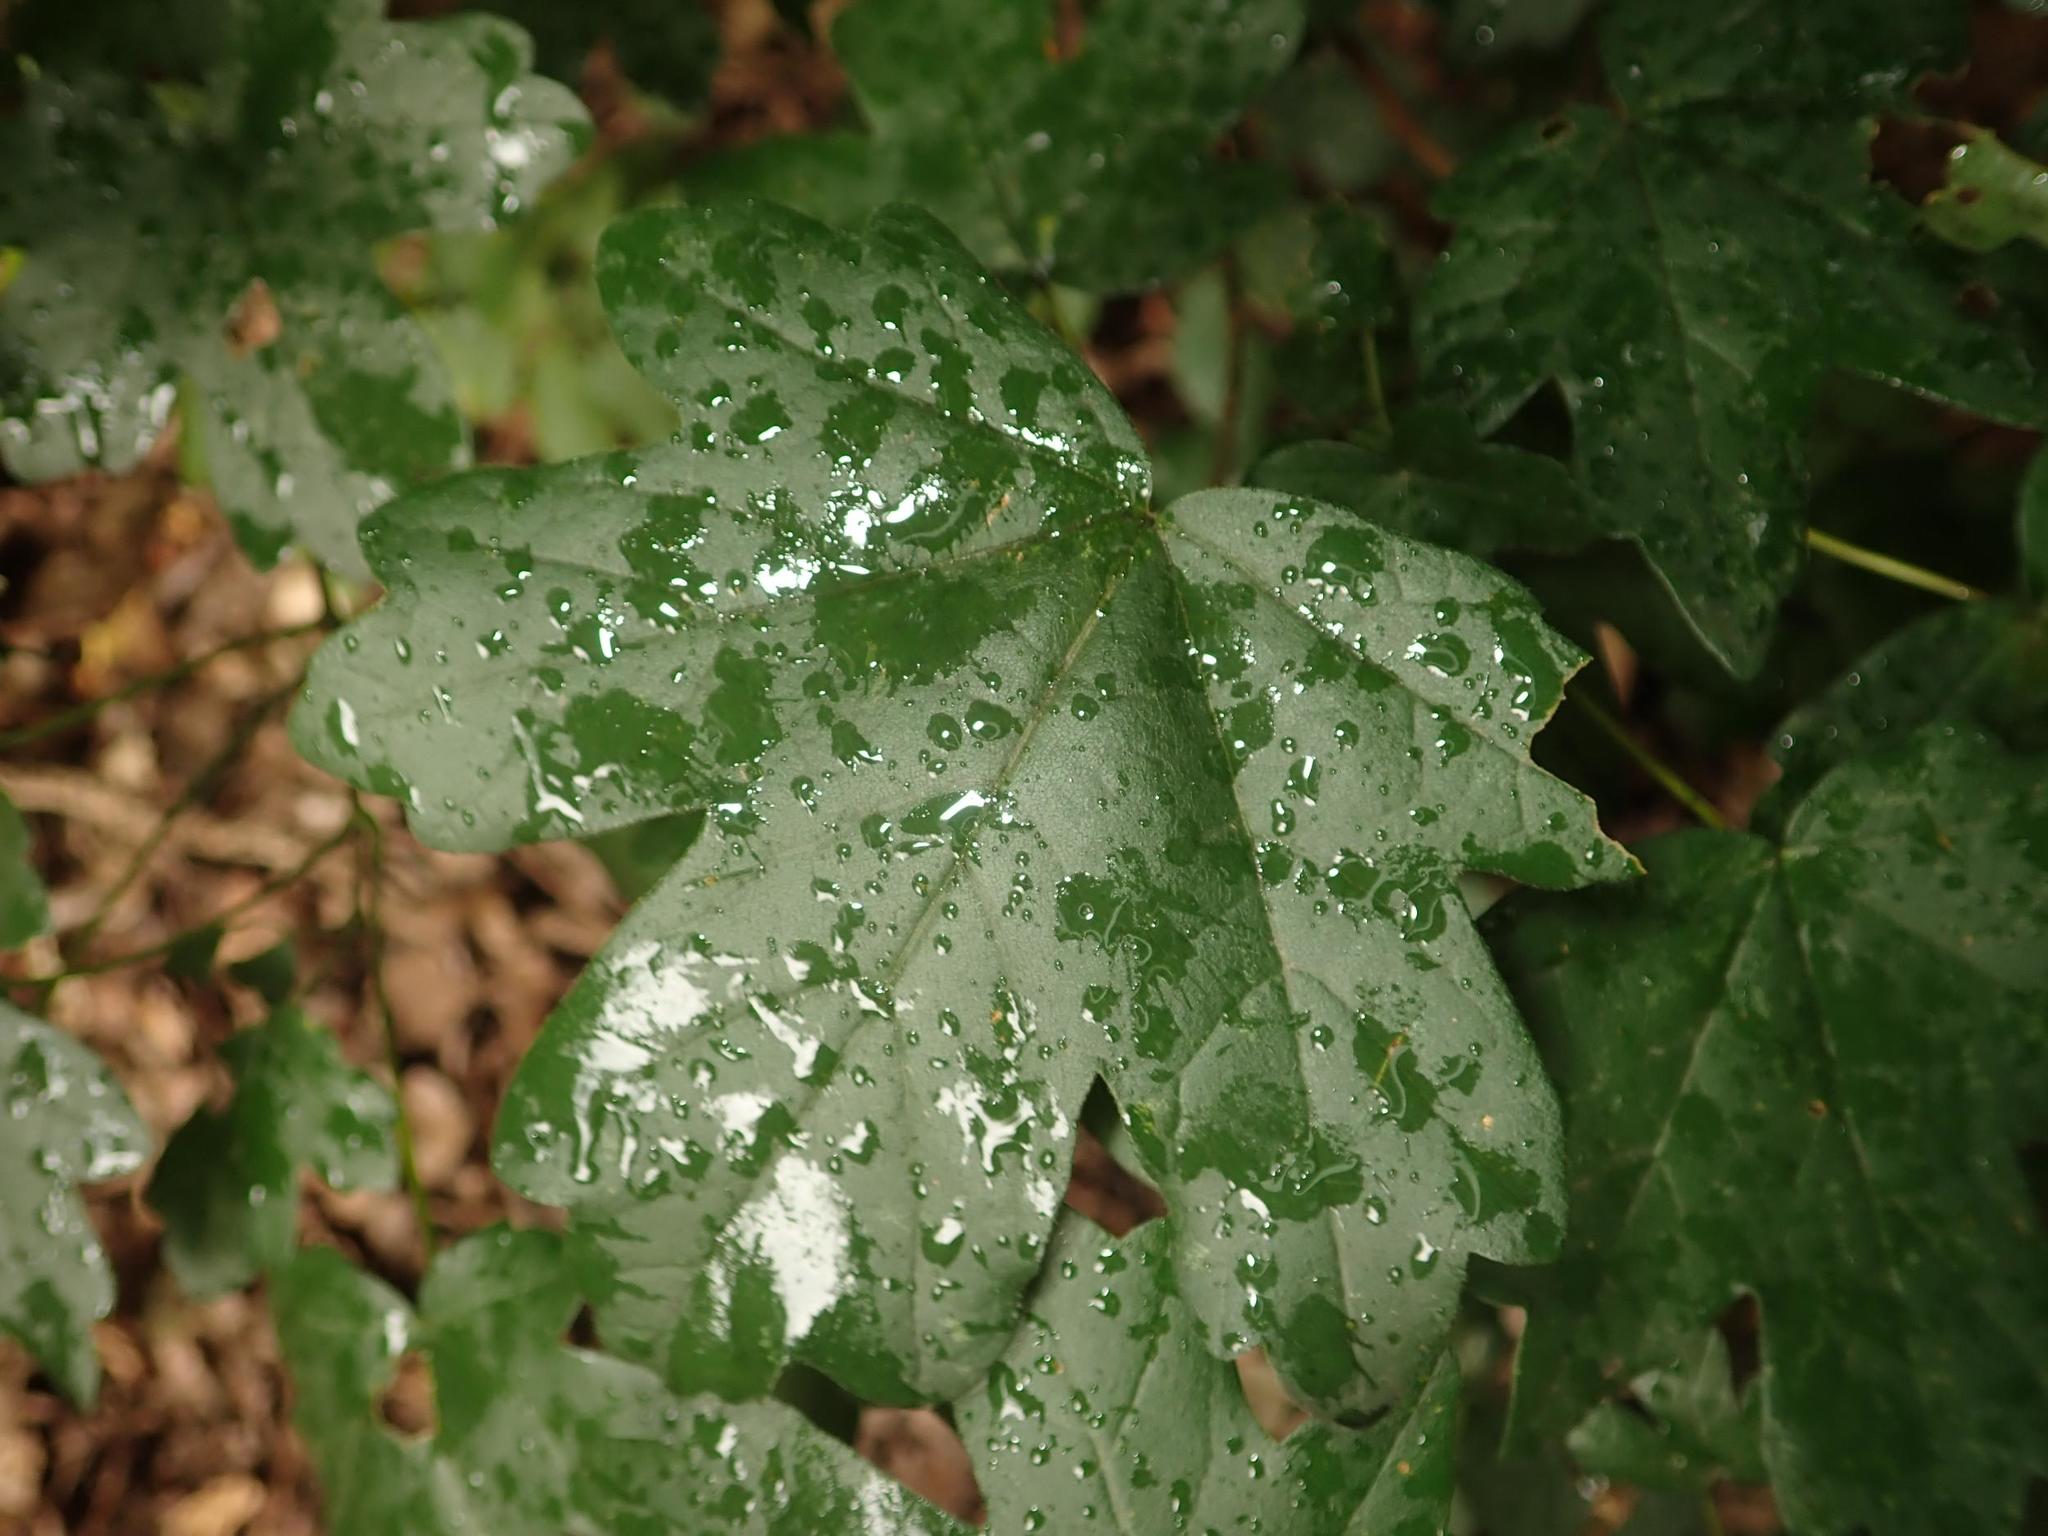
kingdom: Plantae
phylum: Tracheophyta
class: Magnoliopsida
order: Sapindales
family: Sapindaceae
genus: Acer
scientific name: Acer campestre
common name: Field maple
